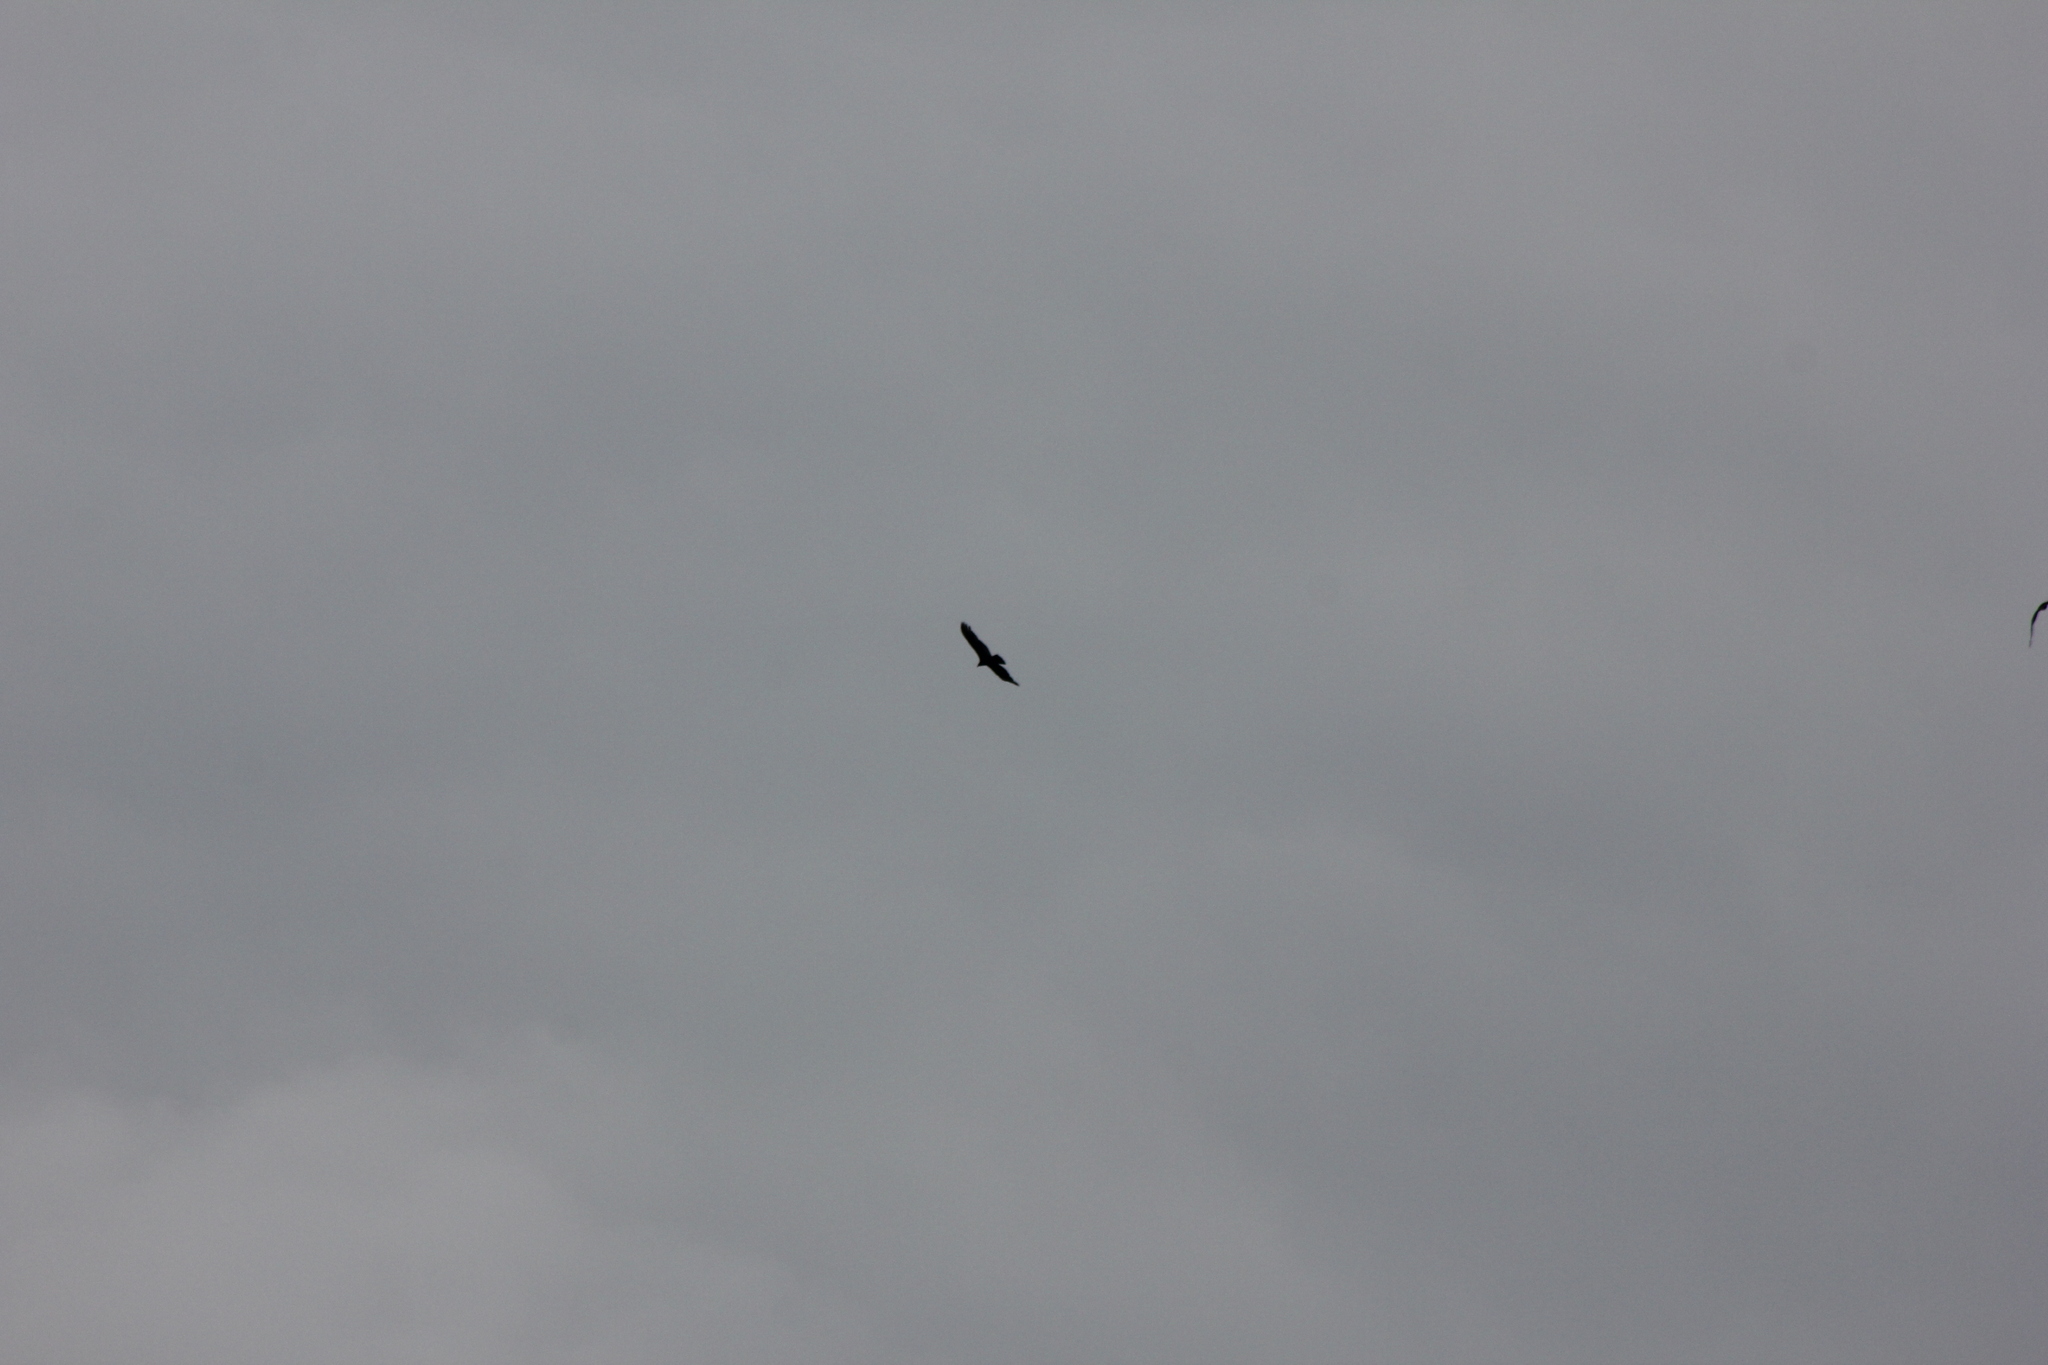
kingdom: Animalia
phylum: Chordata
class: Aves
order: Accipitriformes
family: Cathartidae
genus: Cathartes
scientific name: Cathartes aura
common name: Turkey vulture
